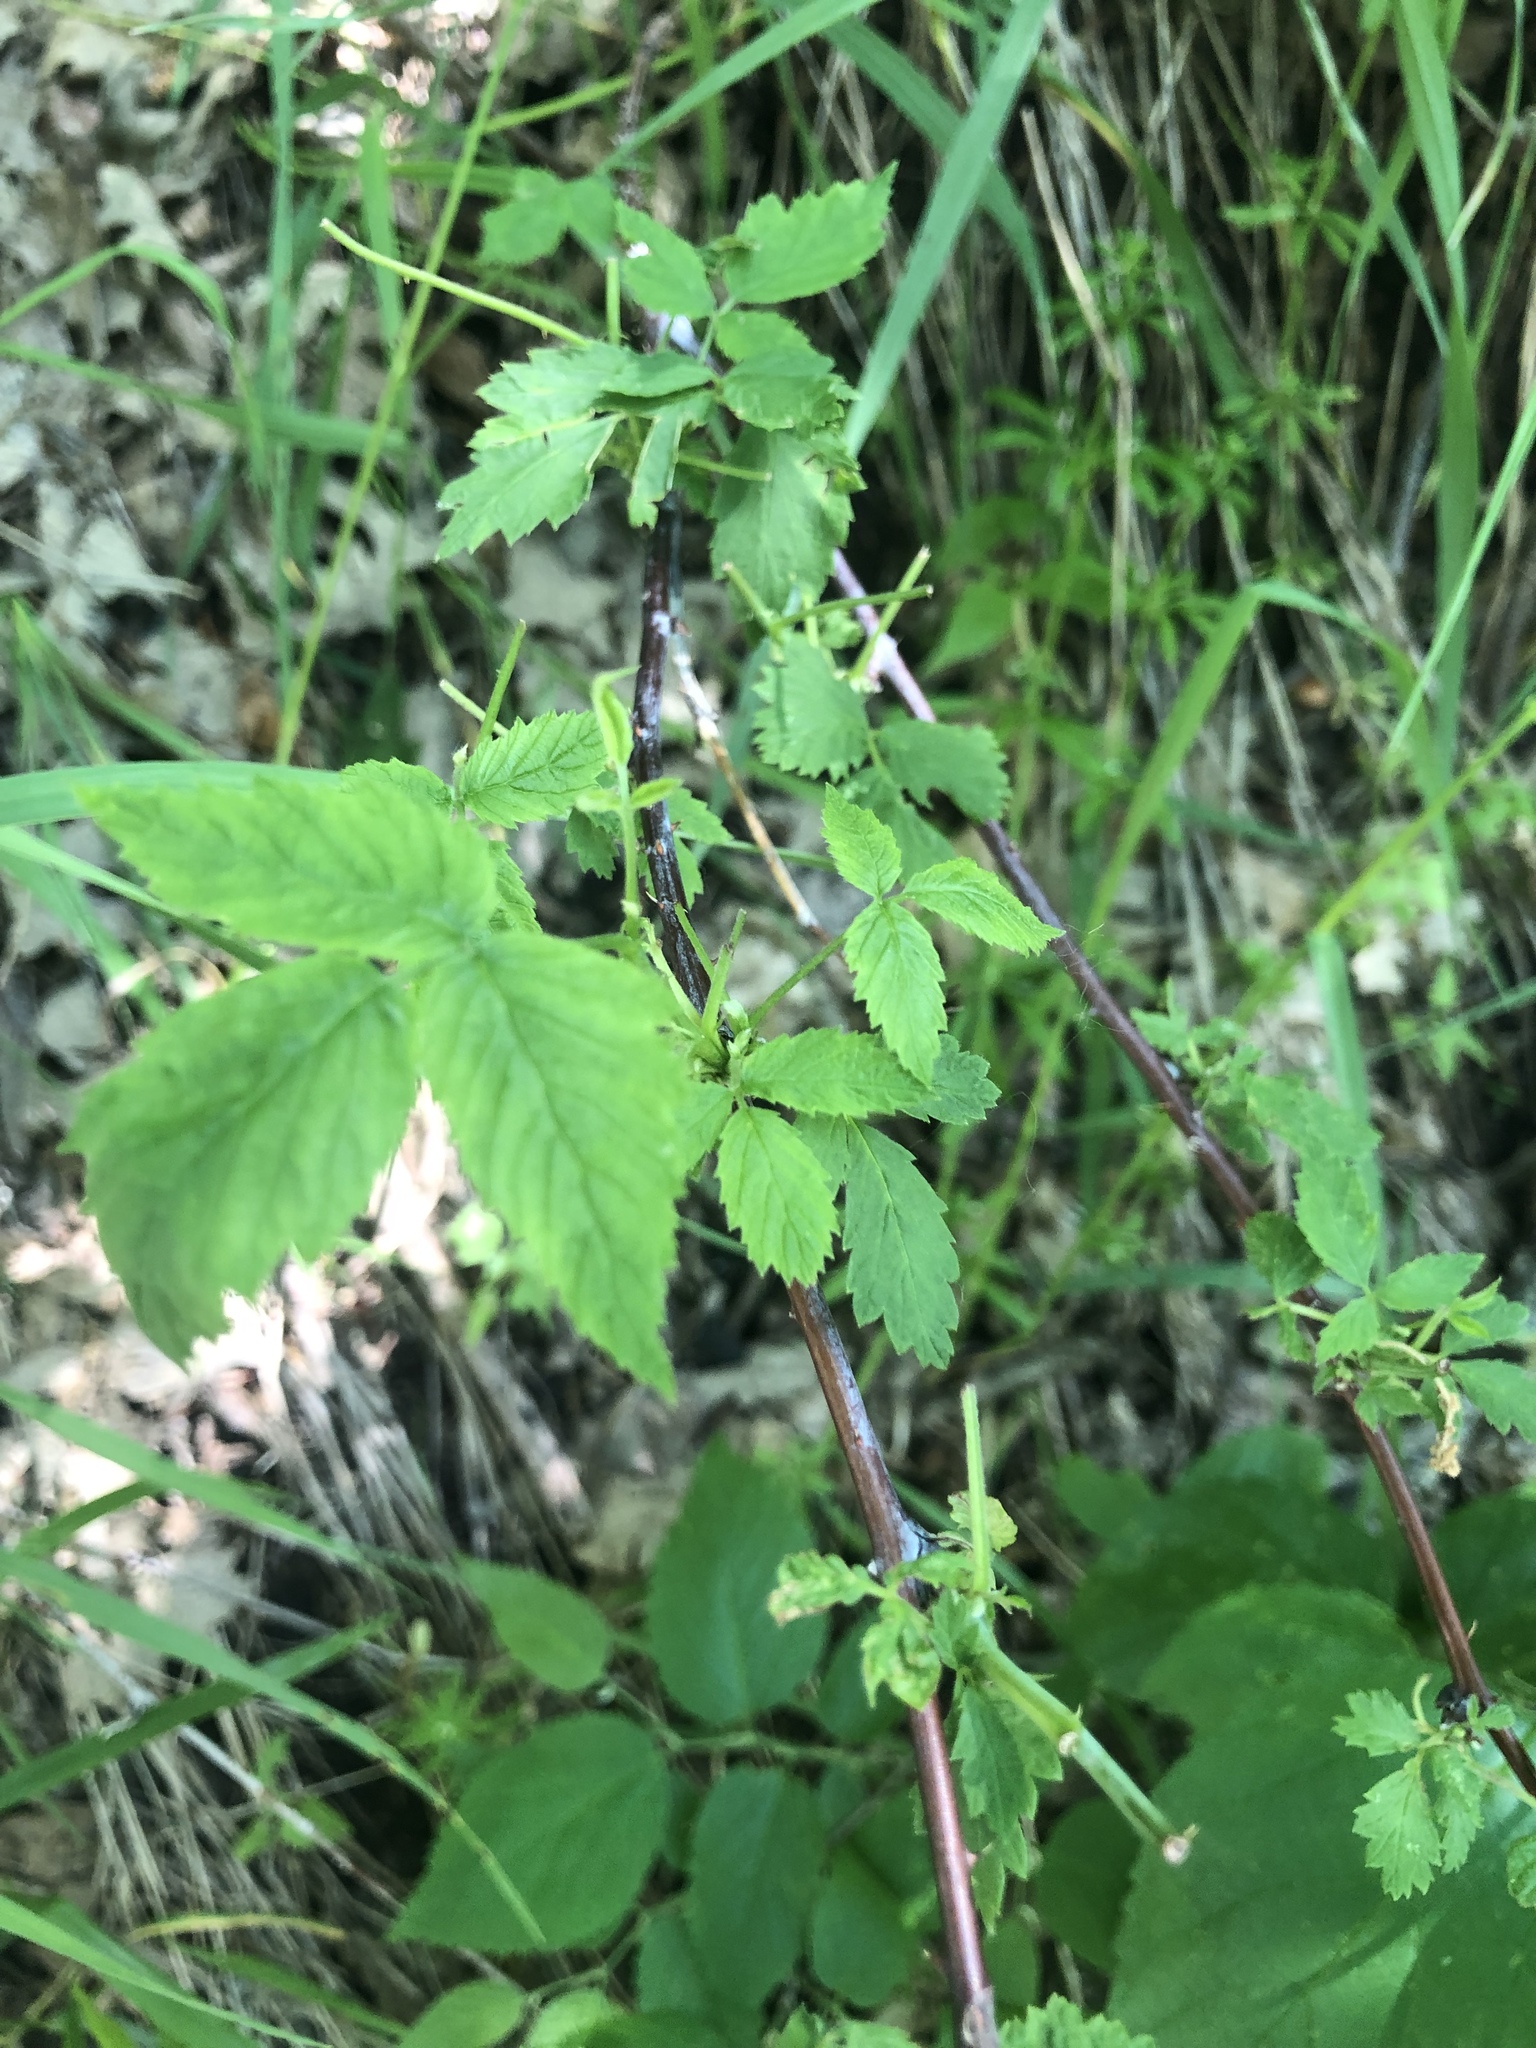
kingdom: Plantae
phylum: Tracheophyta
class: Magnoliopsida
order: Rosales
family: Rosaceae
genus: Rubus
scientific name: Rubus occidentalis
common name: Black raspberry
